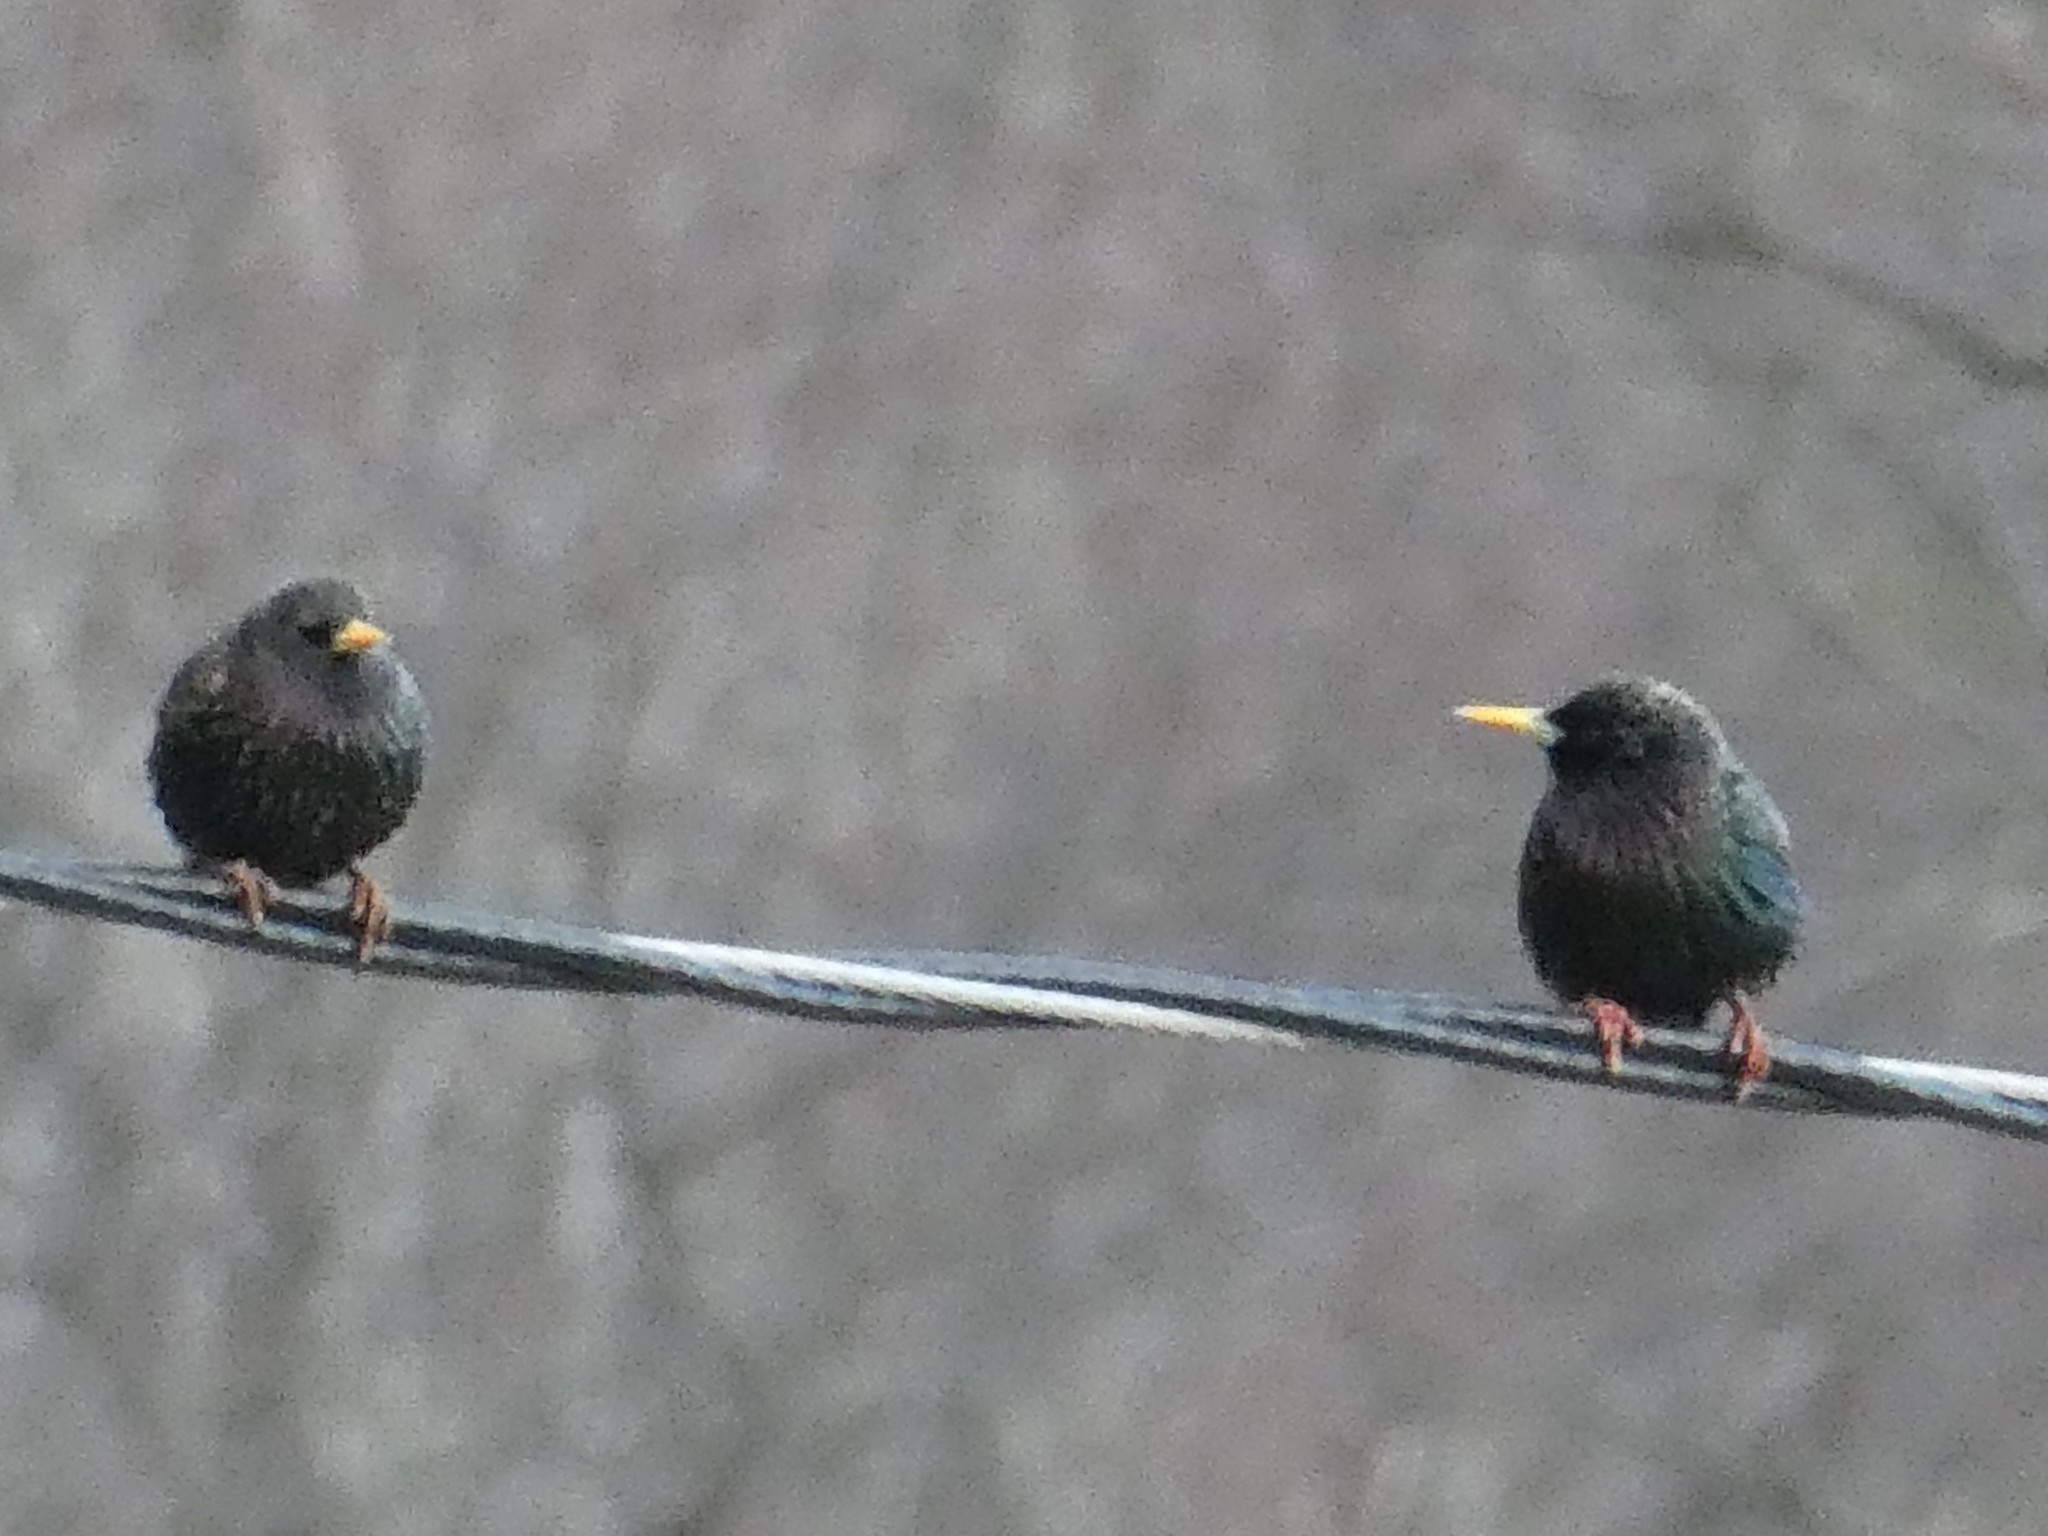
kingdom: Animalia
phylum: Chordata
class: Aves
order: Passeriformes
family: Sturnidae
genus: Sturnus
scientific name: Sturnus vulgaris
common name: Common starling
